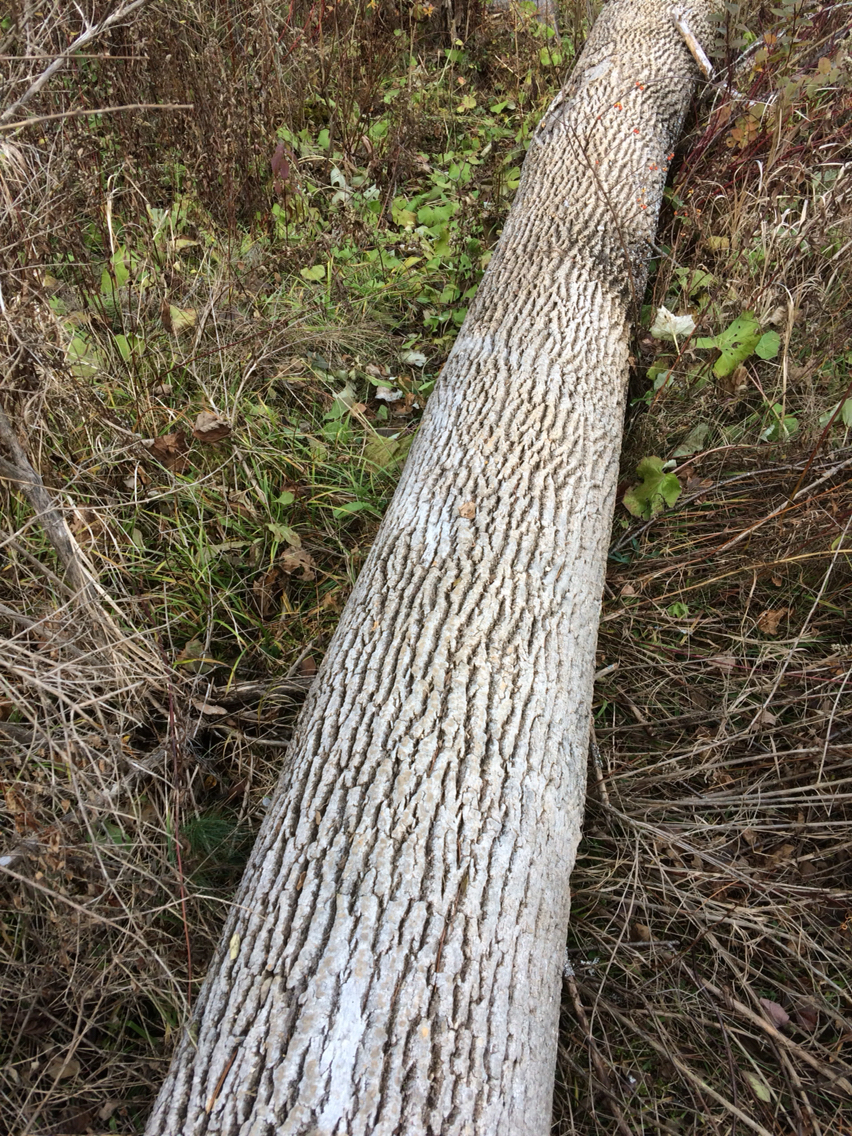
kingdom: Plantae
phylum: Tracheophyta
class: Magnoliopsida
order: Lamiales
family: Oleaceae
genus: Fraxinus
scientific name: Fraxinus americana
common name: White ash
